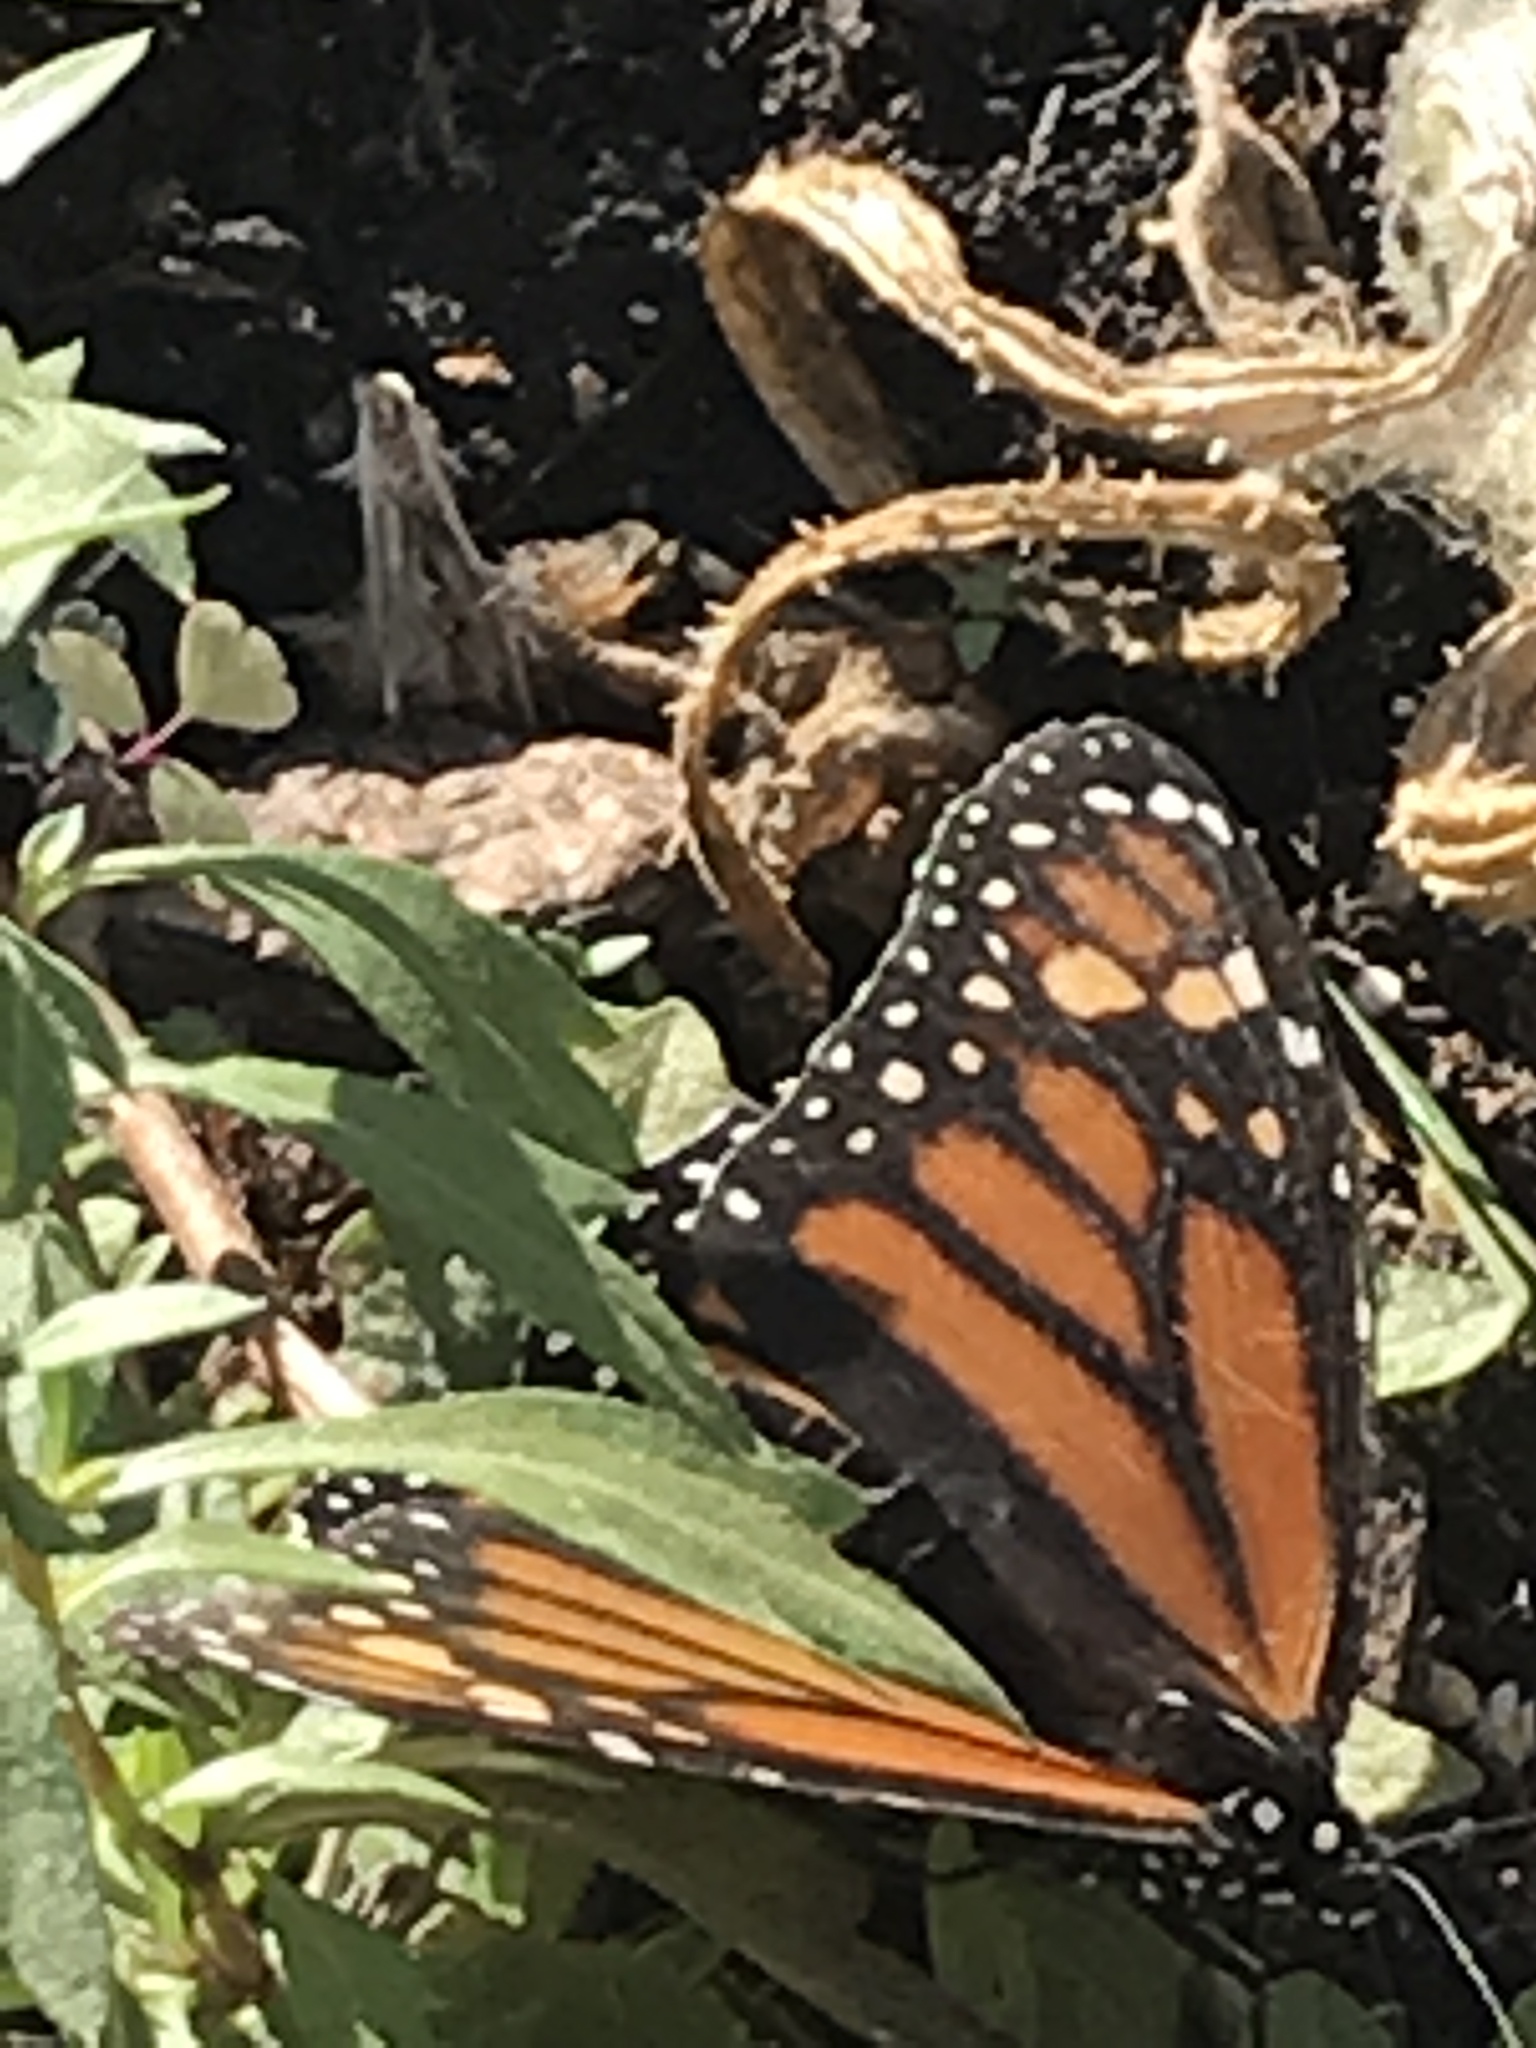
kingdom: Animalia
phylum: Arthropoda
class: Insecta
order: Lepidoptera
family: Nymphalidae
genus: Danaus
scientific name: Danaus plexippus
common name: Monarch
